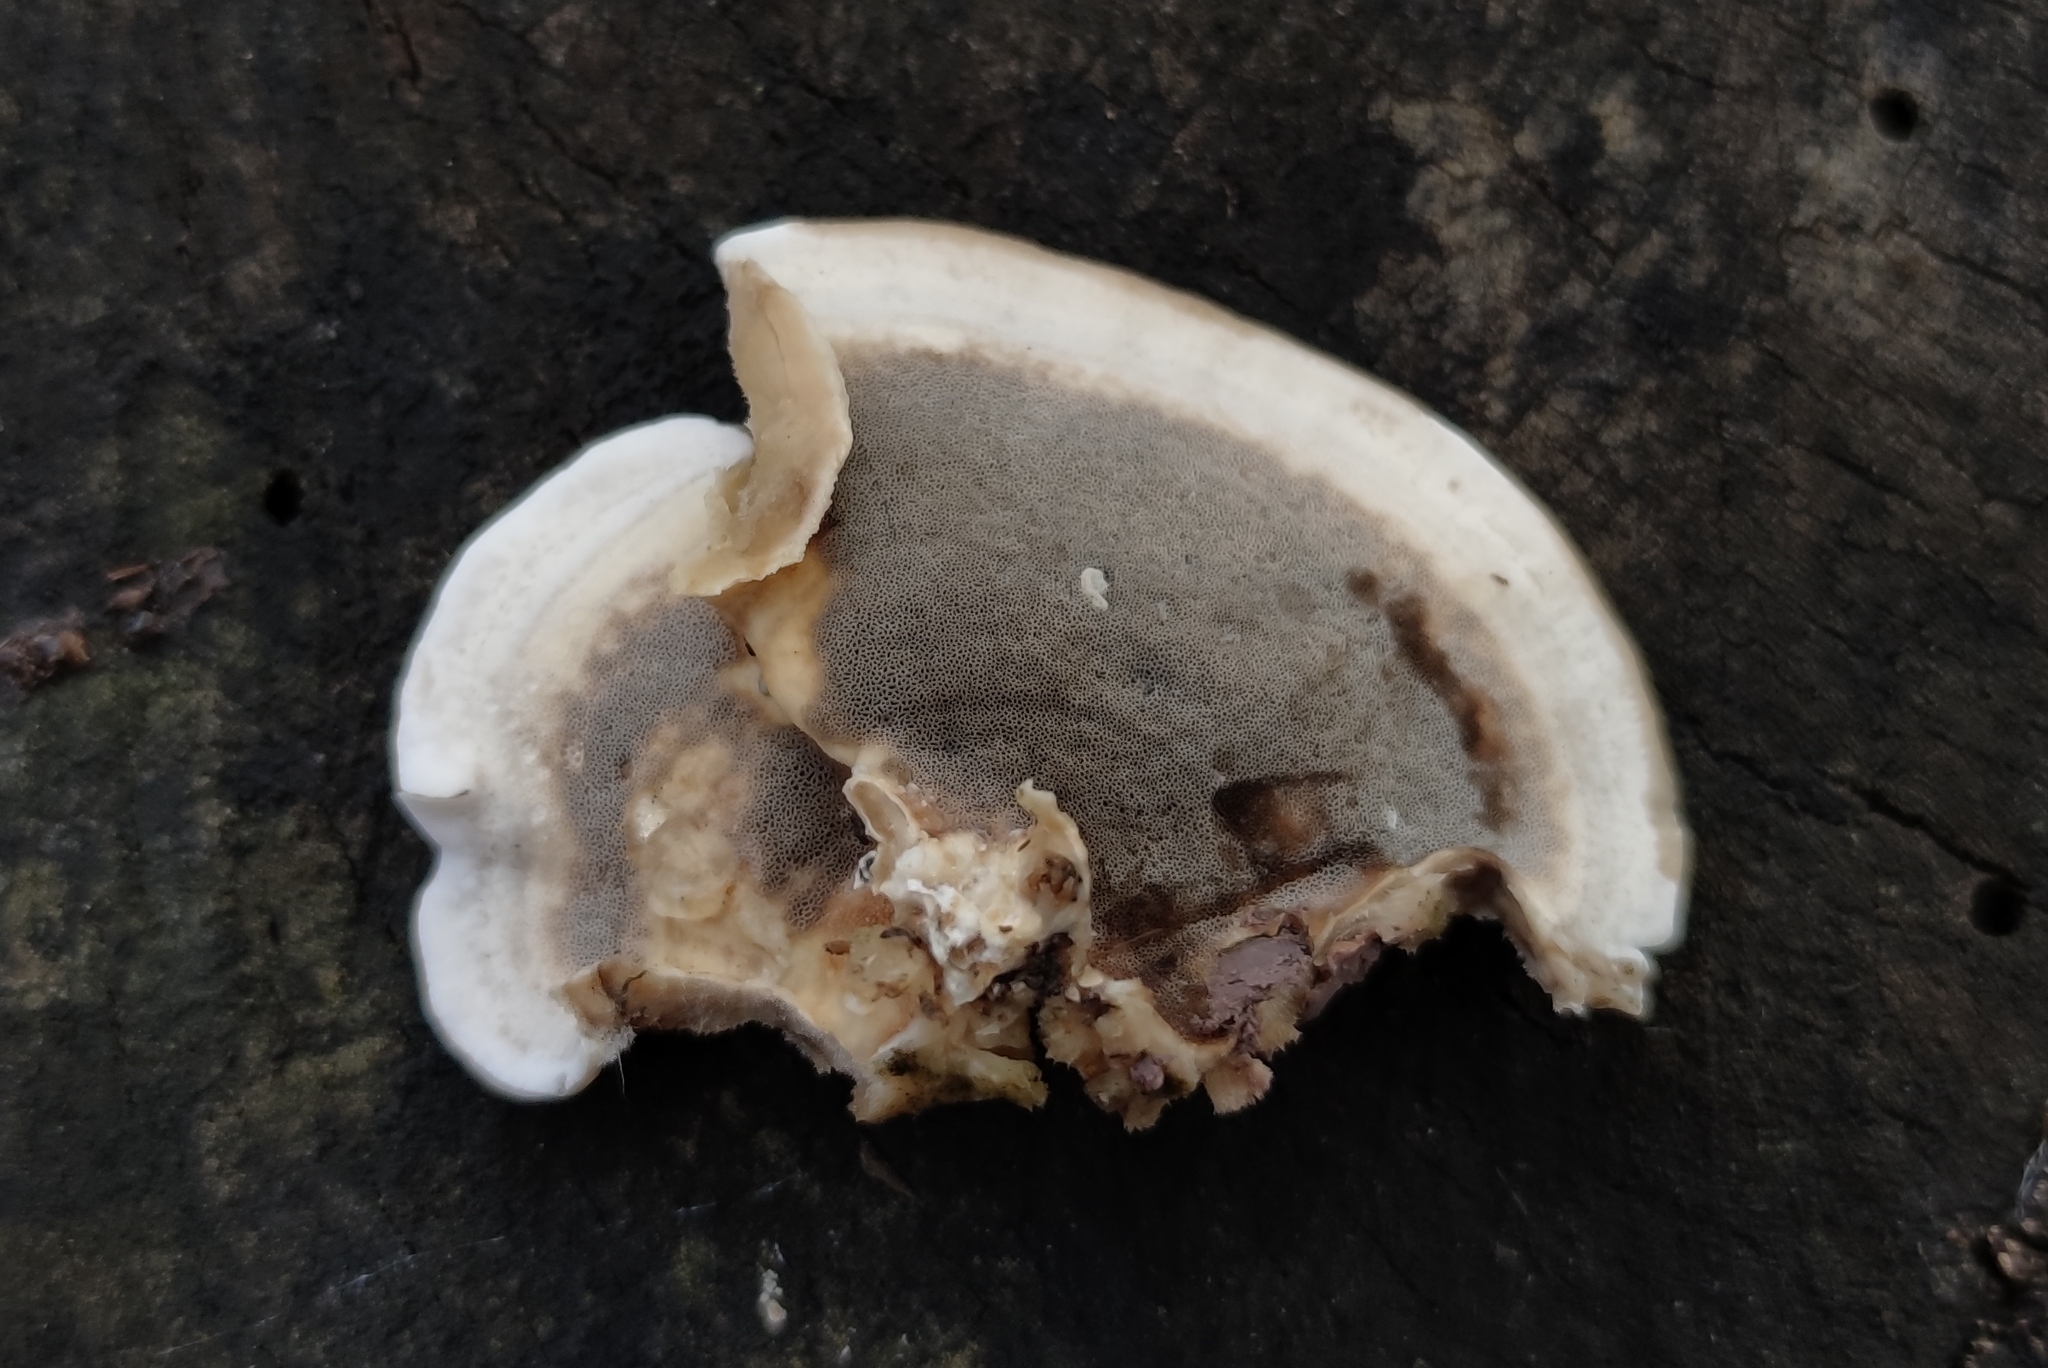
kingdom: Fungi
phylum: Basidiomycota
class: Agaricomycetes
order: Polyporales
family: Phanerochaetaceae
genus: Bjerkandera
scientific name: Bjerkandera adusta
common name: Smoky bracket
